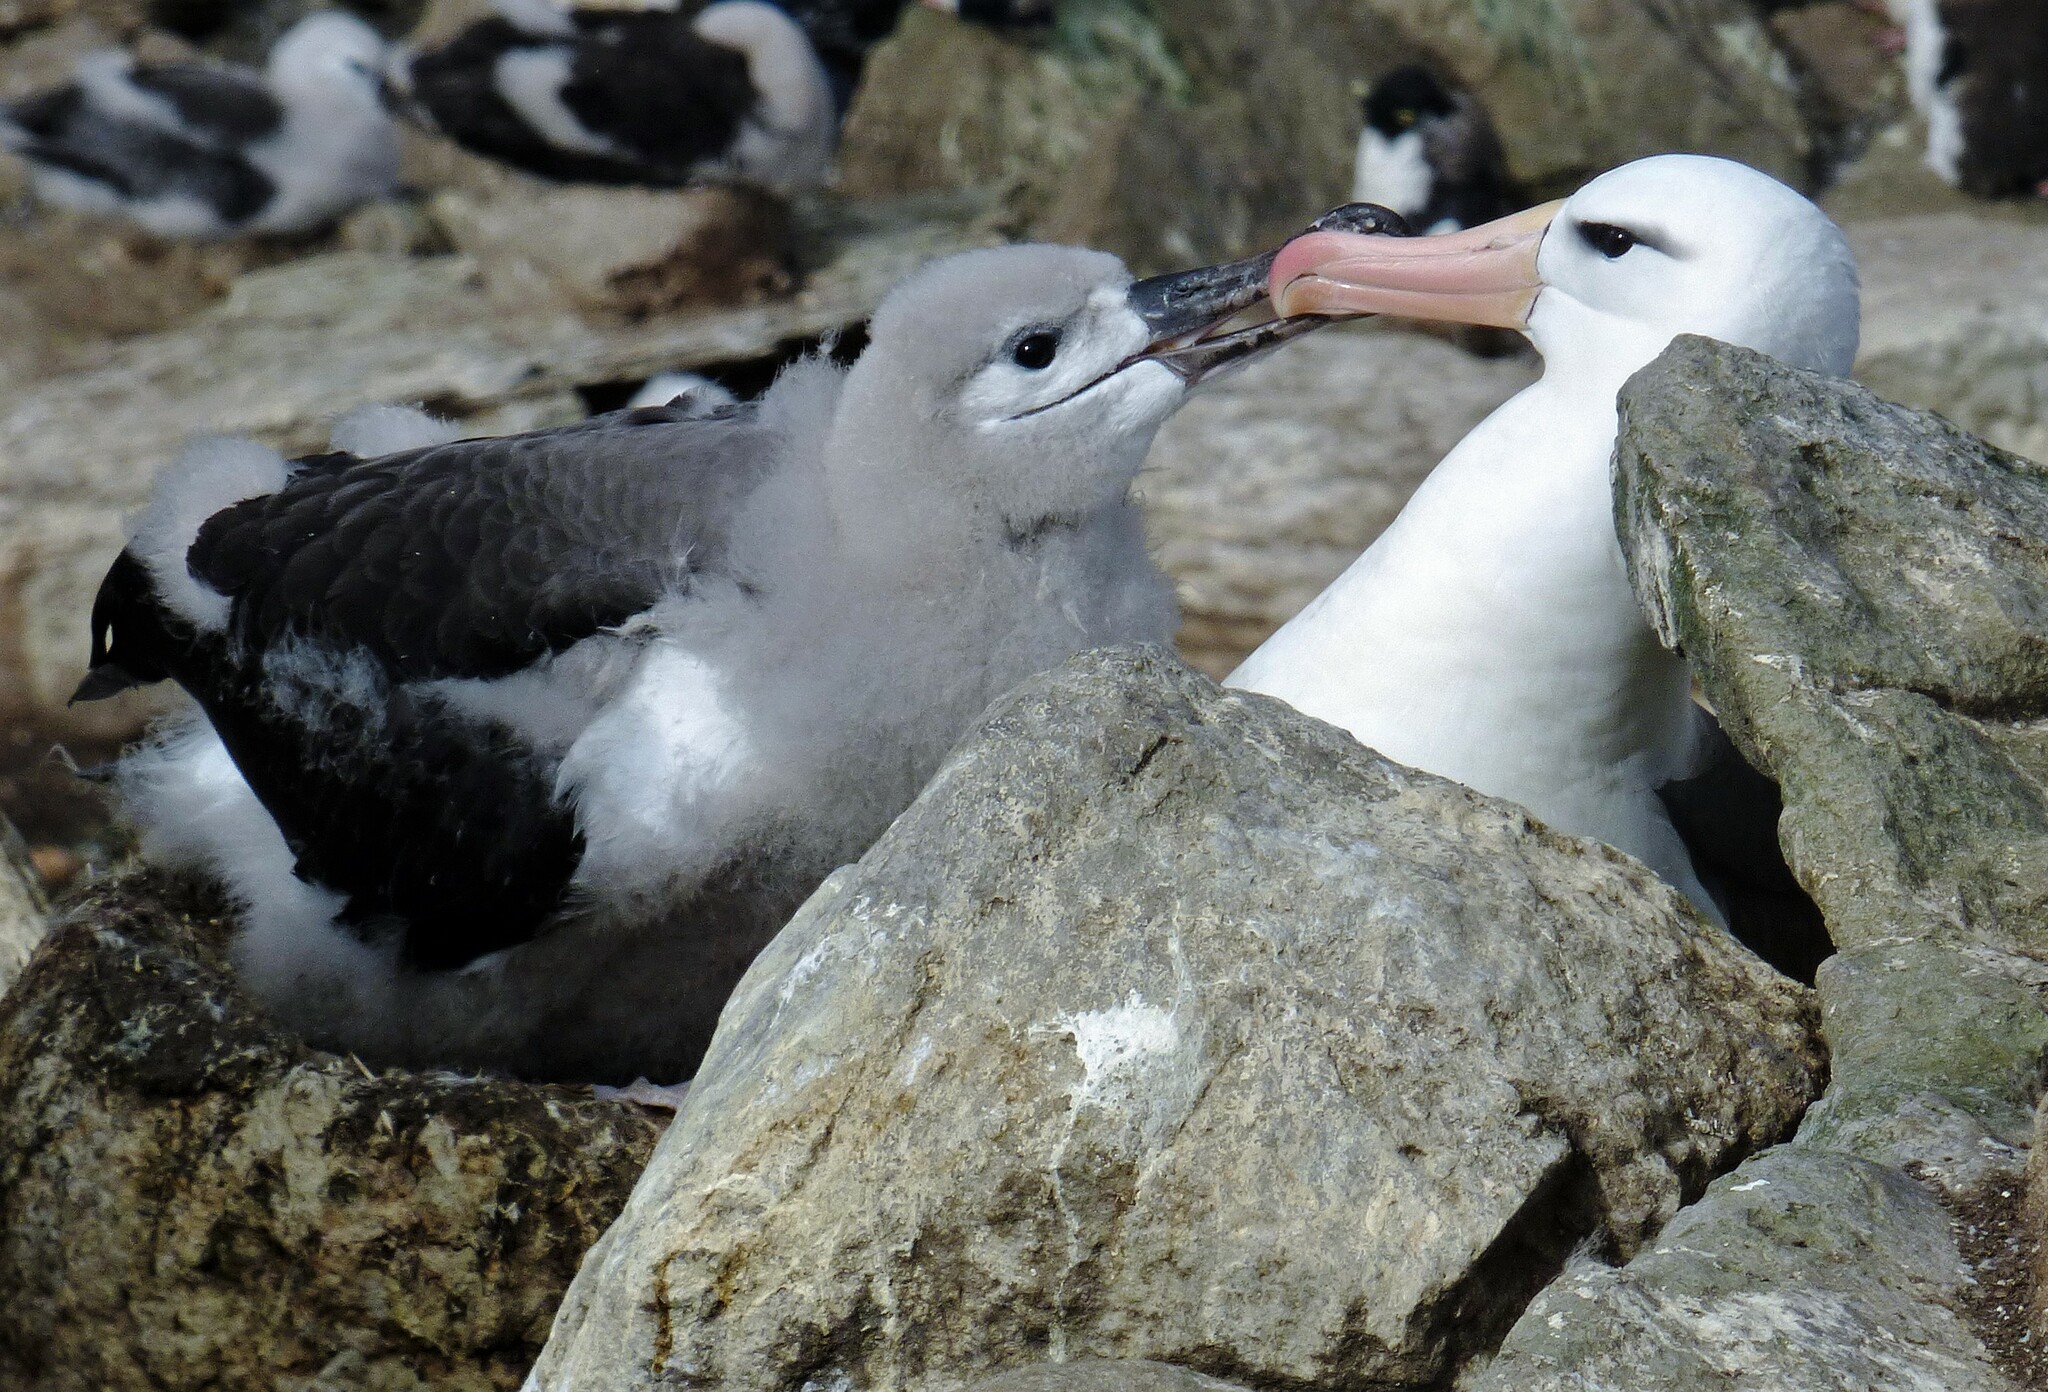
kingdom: Animalia
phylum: Chordata
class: Aves
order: Procellariiformes
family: Diomedeidae
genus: Thalassarche
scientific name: Thalassarche melanophris
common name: Black-browed albatross
